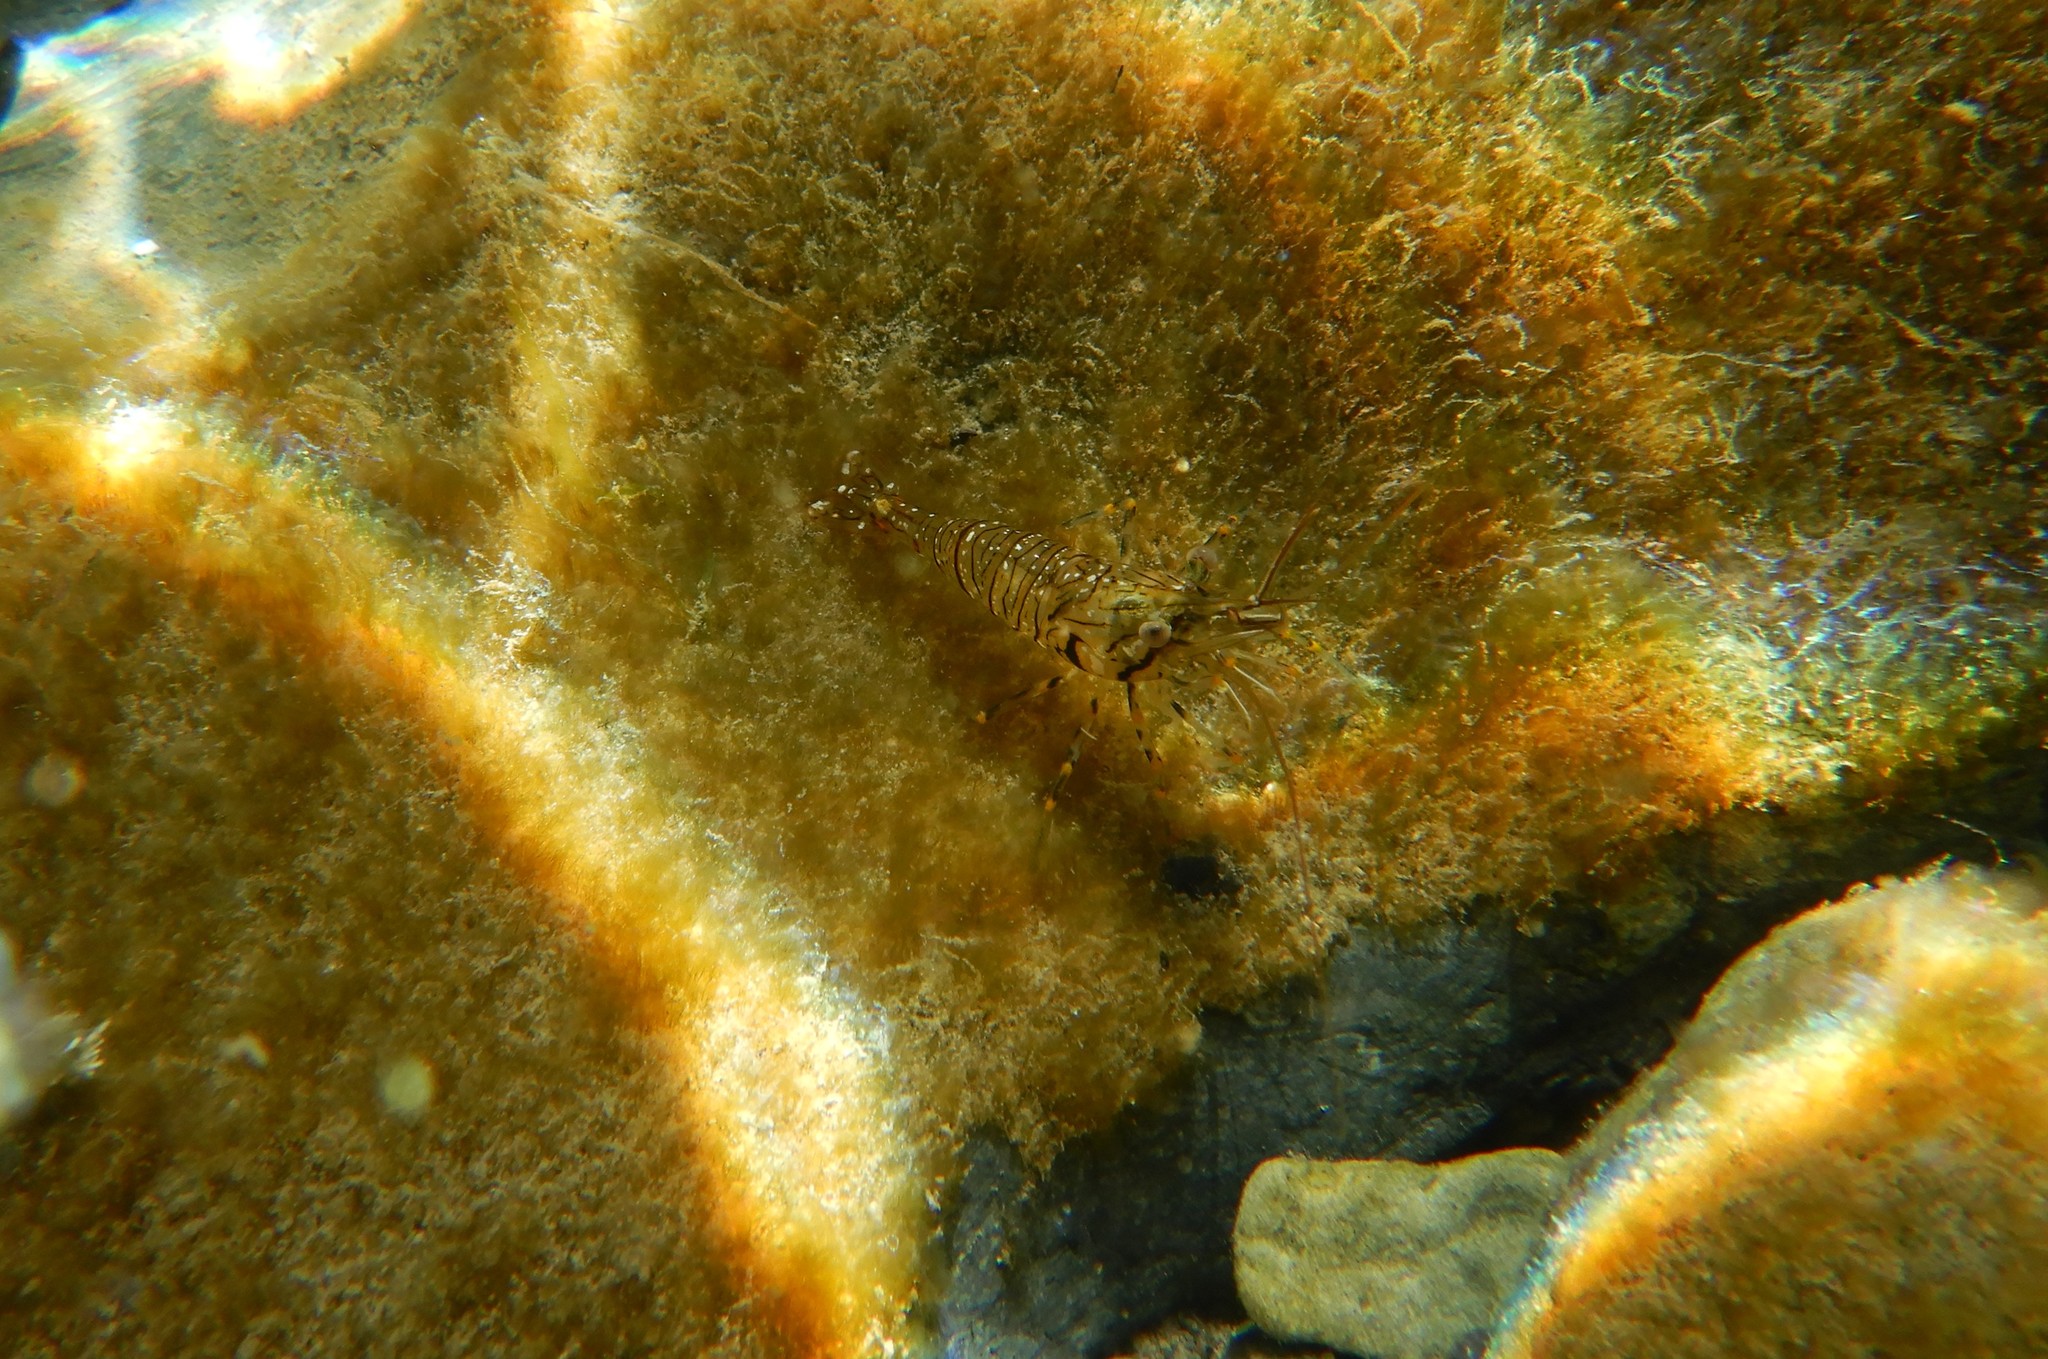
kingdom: Animalia
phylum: Arthropoda
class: Malacostraca
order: Decapoda
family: Palaemonidae
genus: Palaemon
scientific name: Palaemon elegans
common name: Grass prawm
